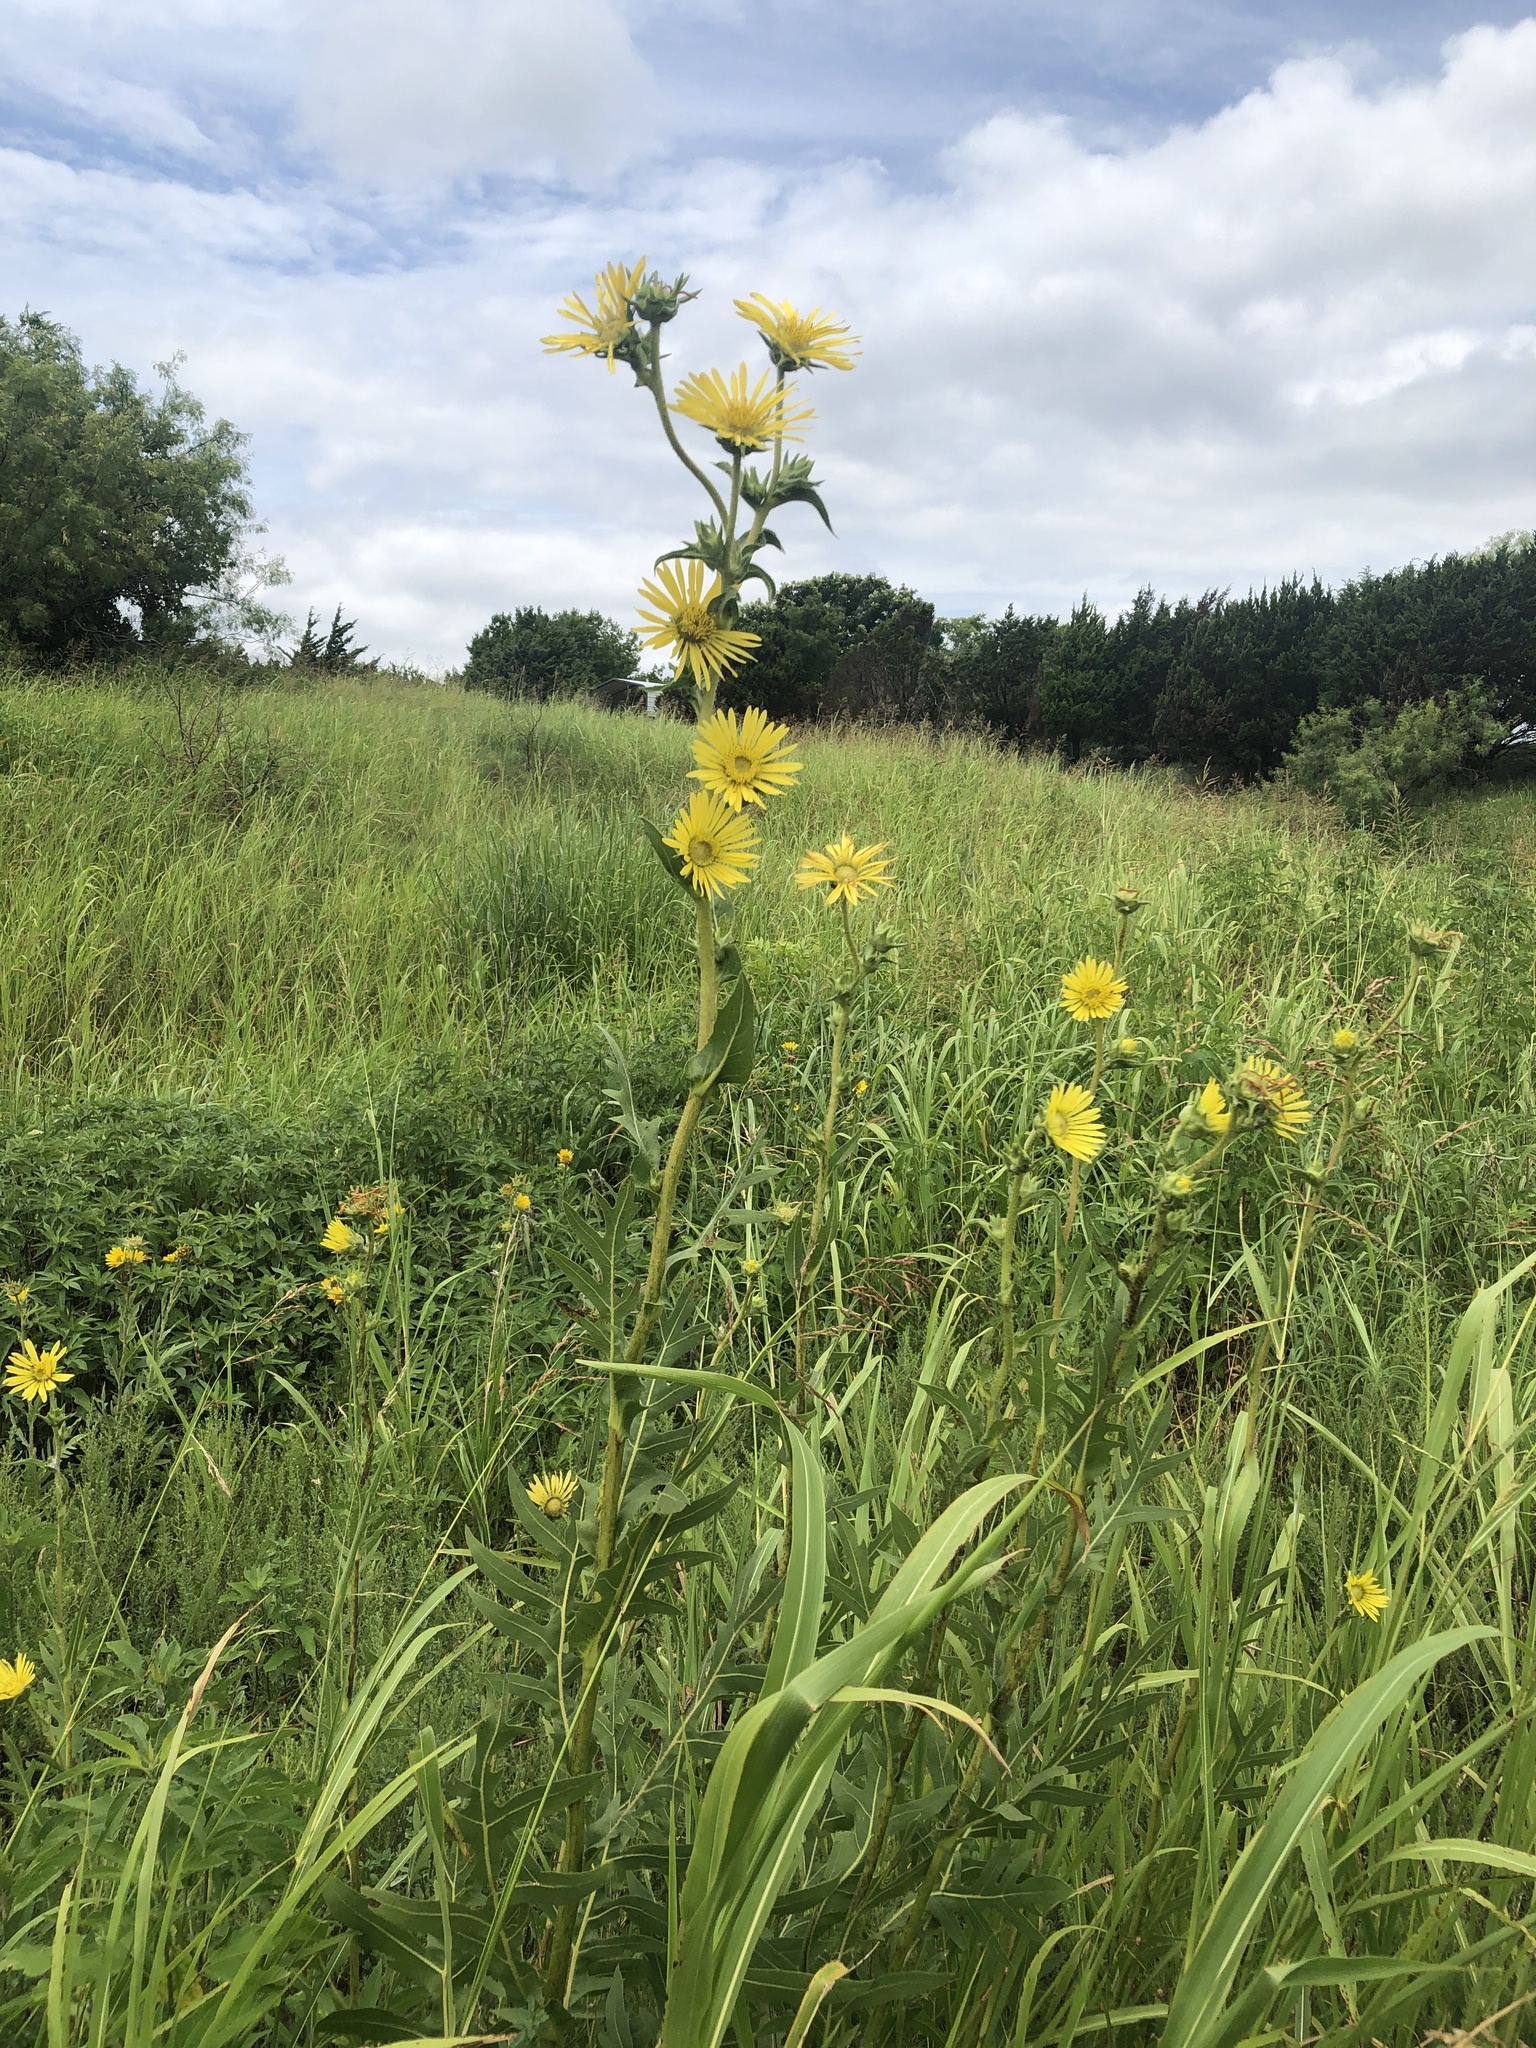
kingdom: Plantae
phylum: Tracheophyta
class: Magnoliopsida
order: Asterales
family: Asteraceae
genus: Silphium
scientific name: Silphium laciniatum
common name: Polarplant
